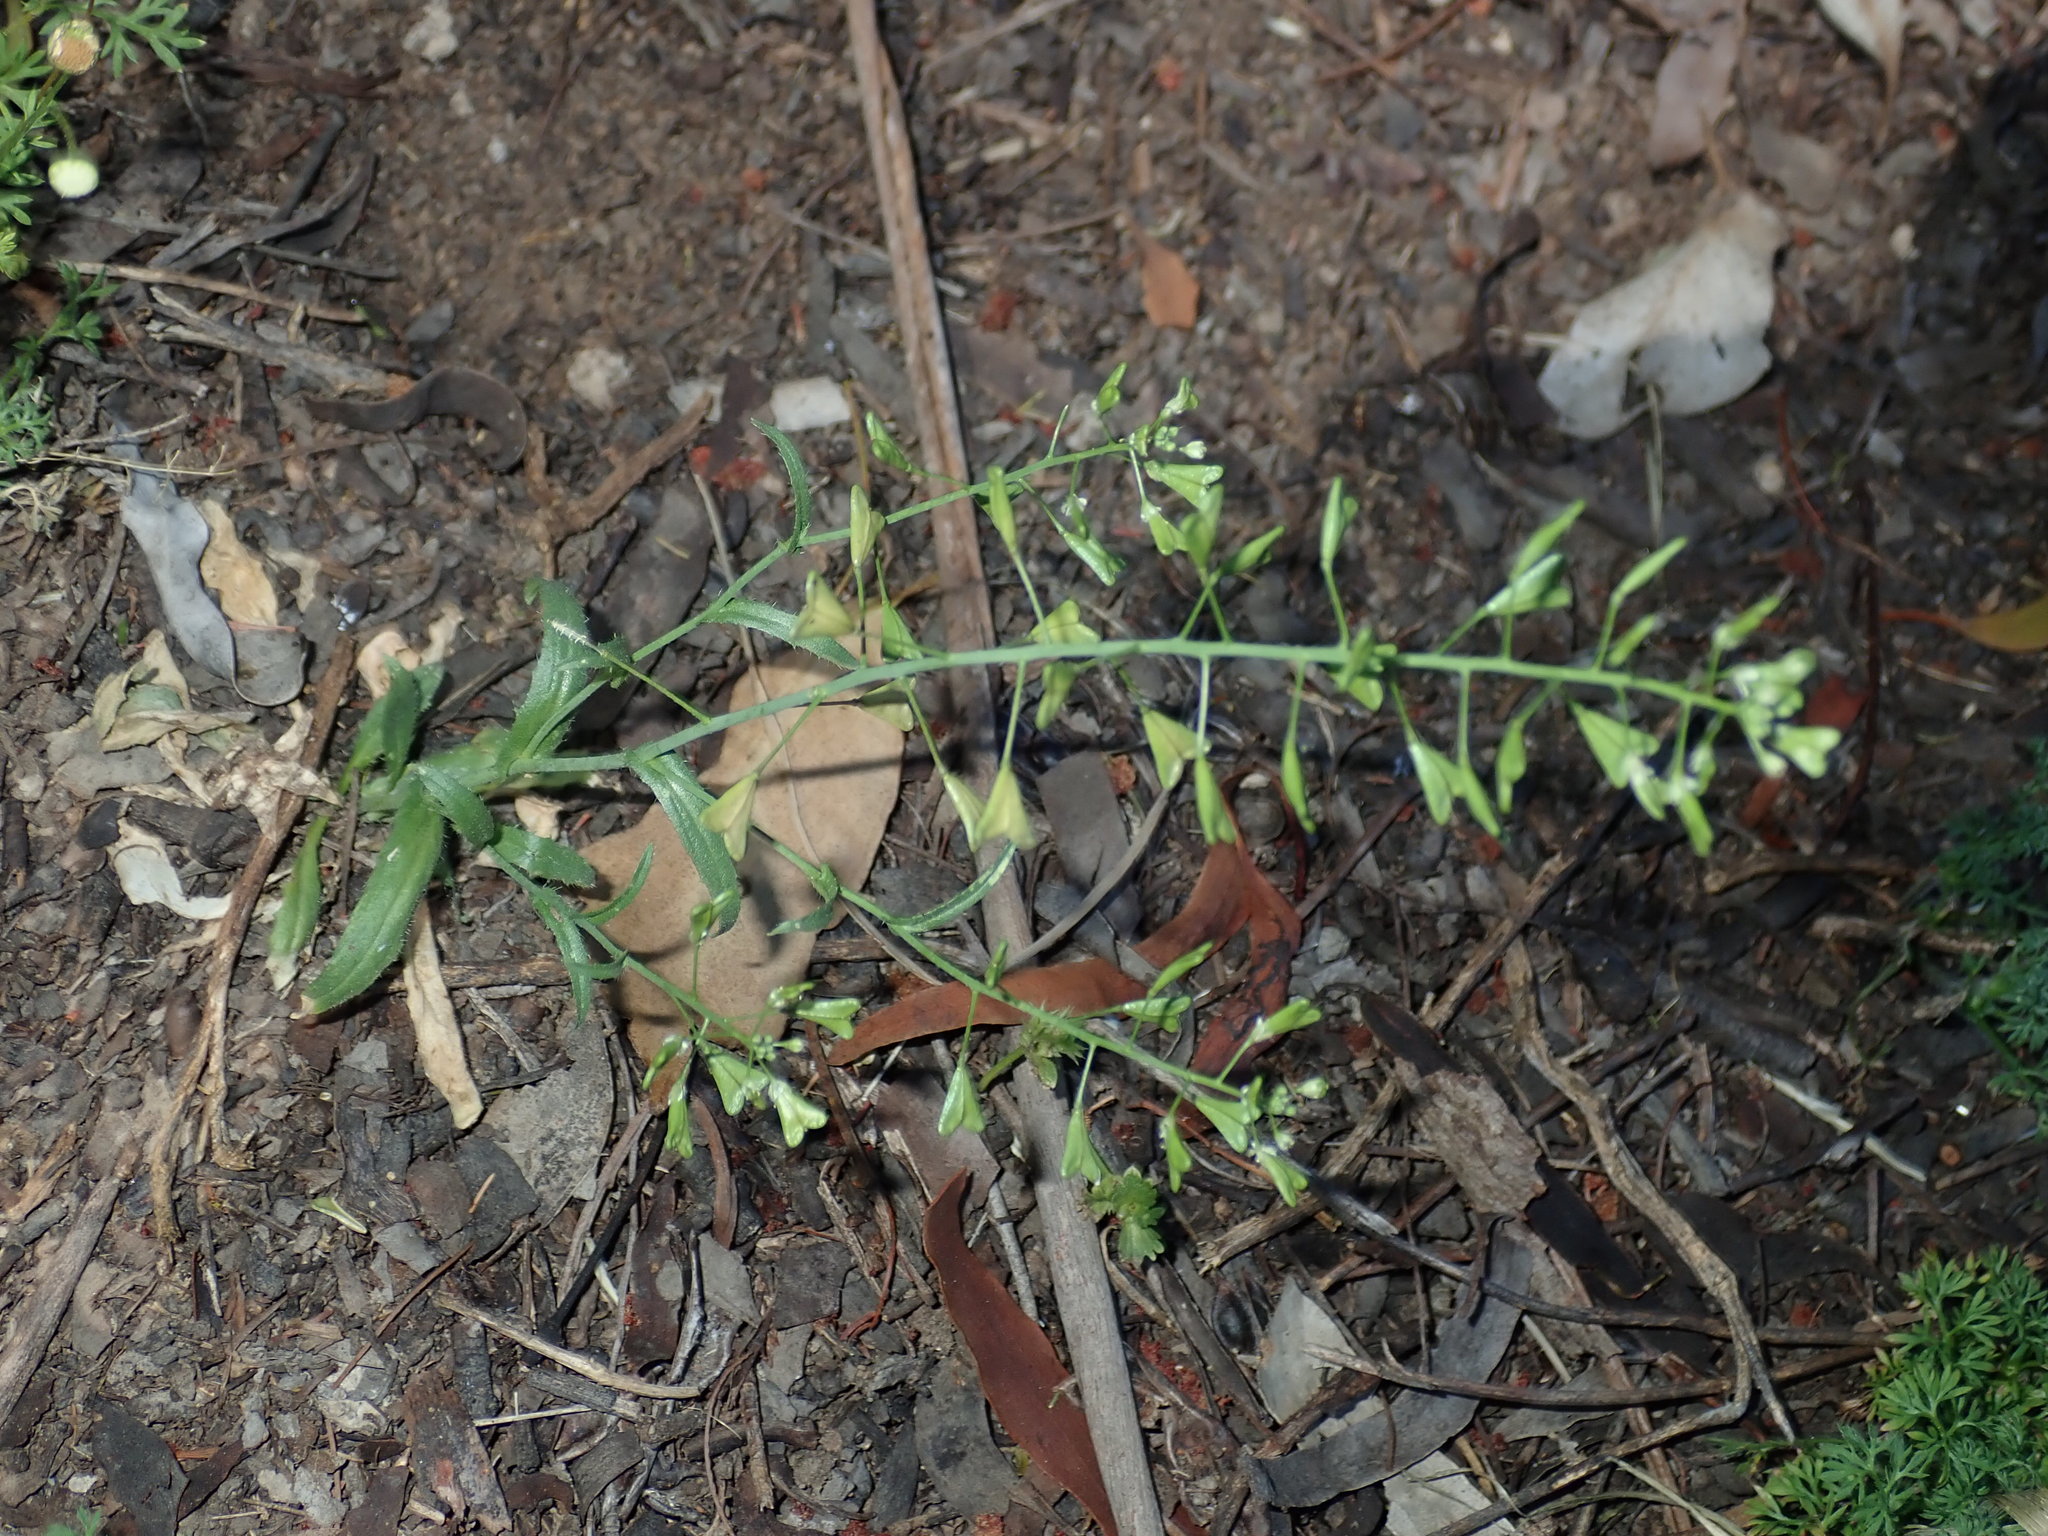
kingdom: Plantae
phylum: Tracheophyta
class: Magnoliopsida
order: Brassicales
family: Brassicaceae
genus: Capsella
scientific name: Capsella bursa-pastoris
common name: Shepherd's purse
